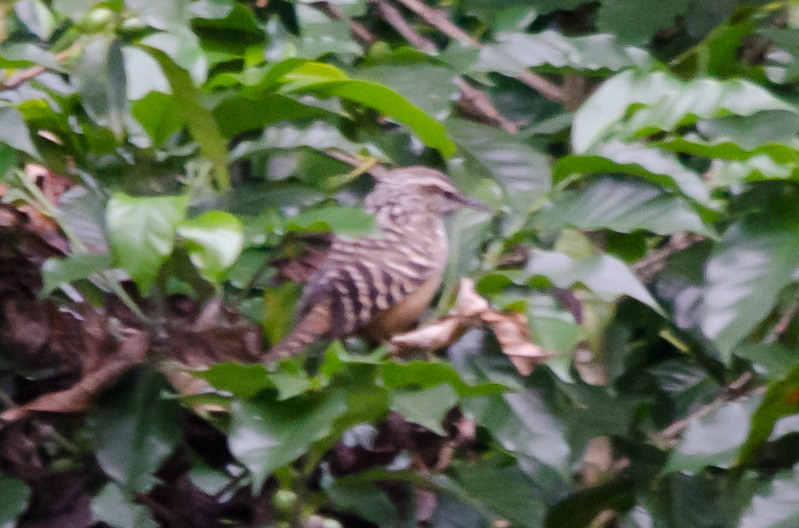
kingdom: Animalia
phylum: Chordata
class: Aves
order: Passeriformes
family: Troglodytidae
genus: Campylorhynchus
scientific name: Campylorhynchus zonatus
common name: Band-backed wren
